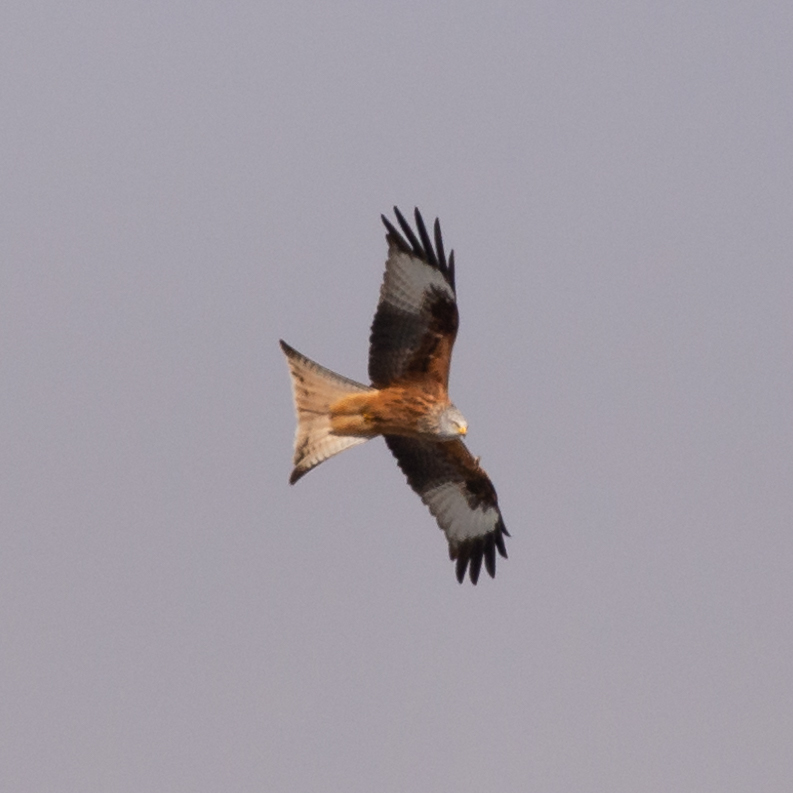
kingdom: Animalia
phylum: Chordata
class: Aves
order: Accipitriformes
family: Accipitridae
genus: Milvus
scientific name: Milvus milvus
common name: Red kite
